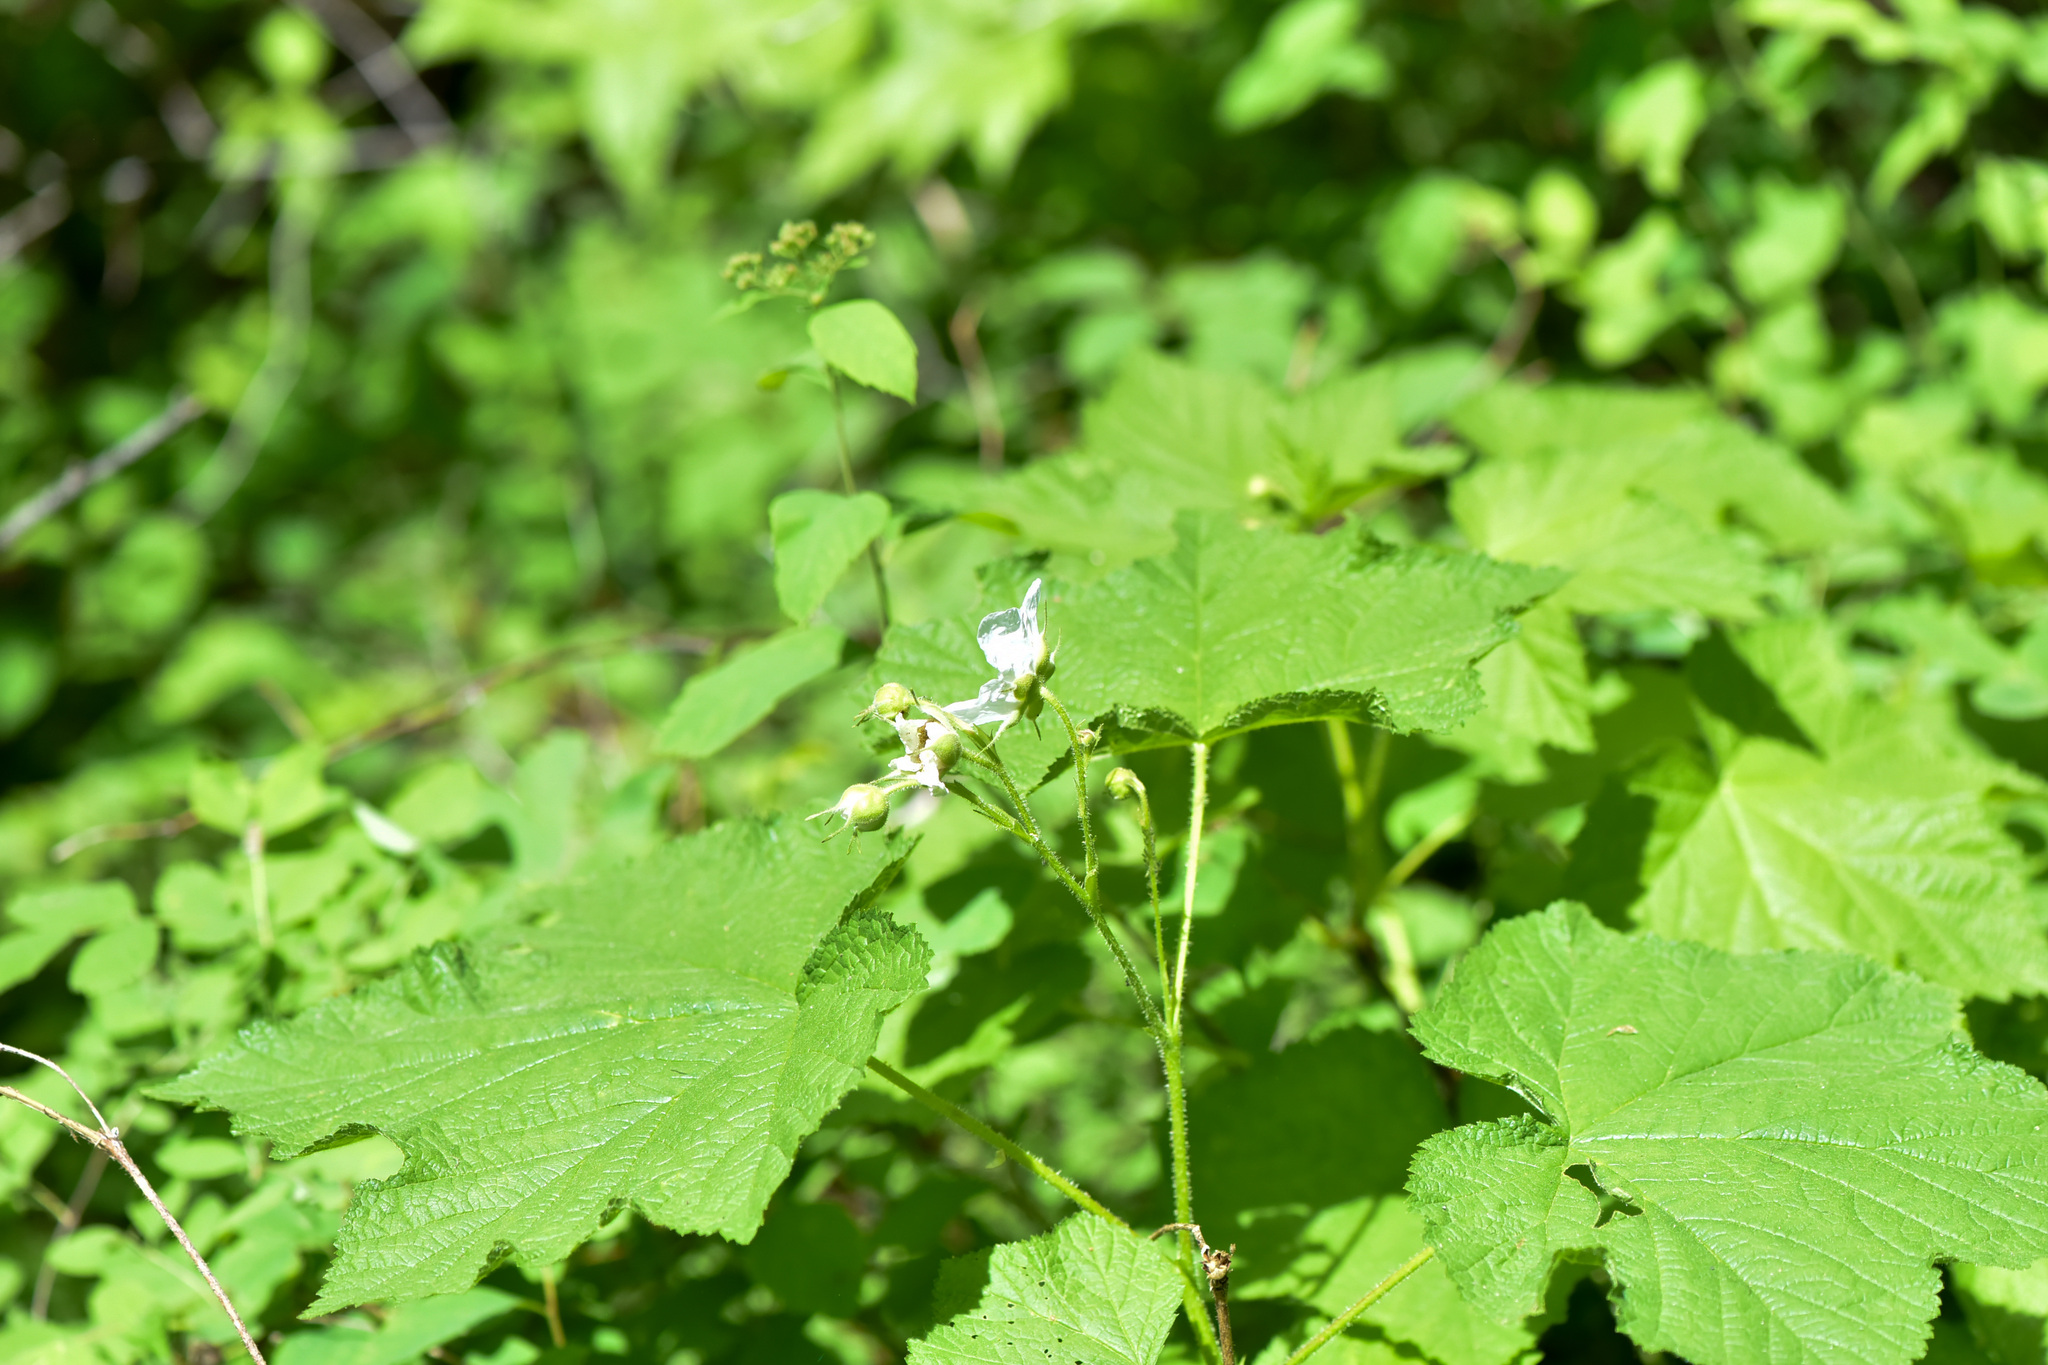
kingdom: Plantae
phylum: Tracheophyta
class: Magnoliopsida
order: Rosales
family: Rosaceae
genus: Rubus
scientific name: Rubus parviflorus
